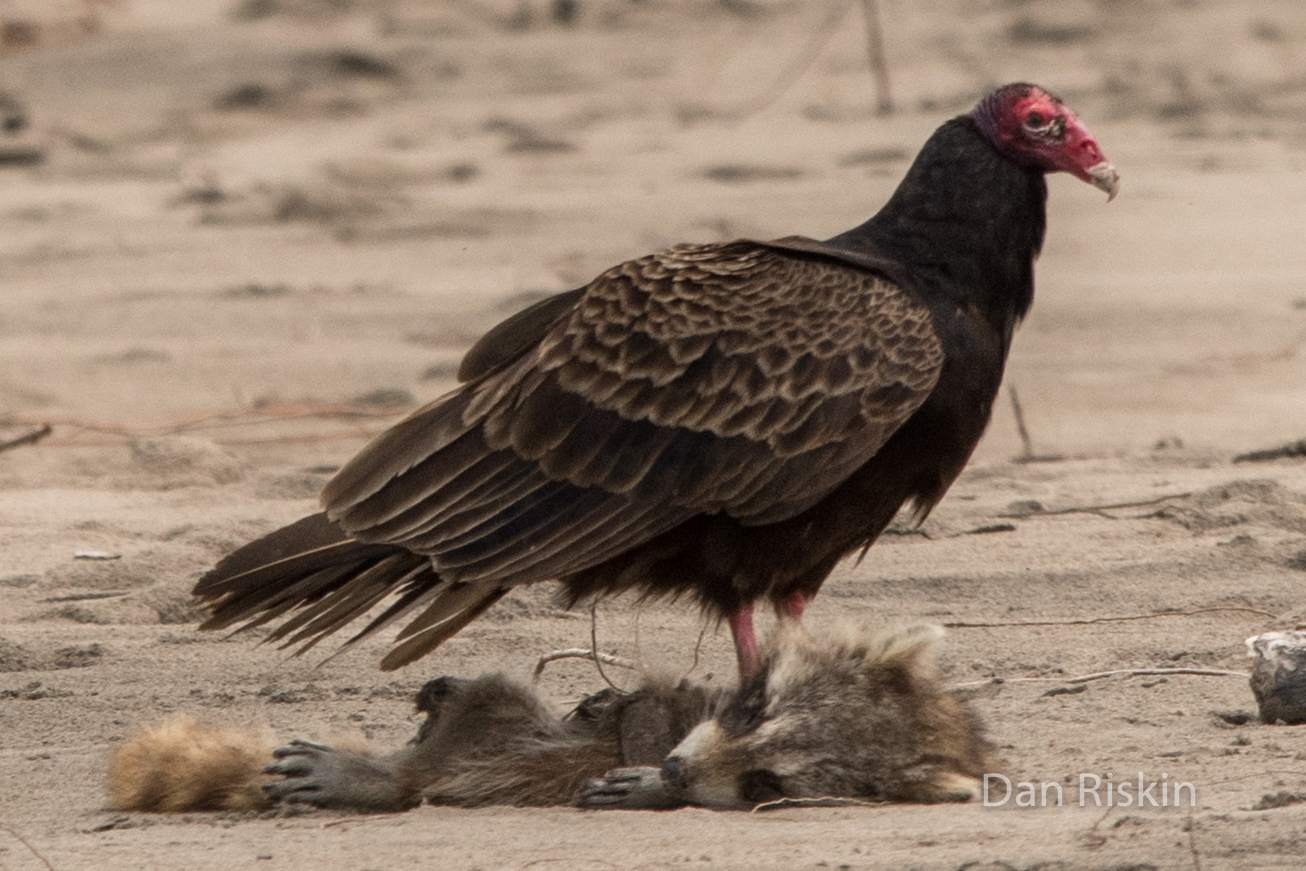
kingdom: Animalia
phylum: Chordata
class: Aves
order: Accipitriformes
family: Cathartidae
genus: Cathartes
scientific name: Cathartes aura
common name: Turkey vulture
